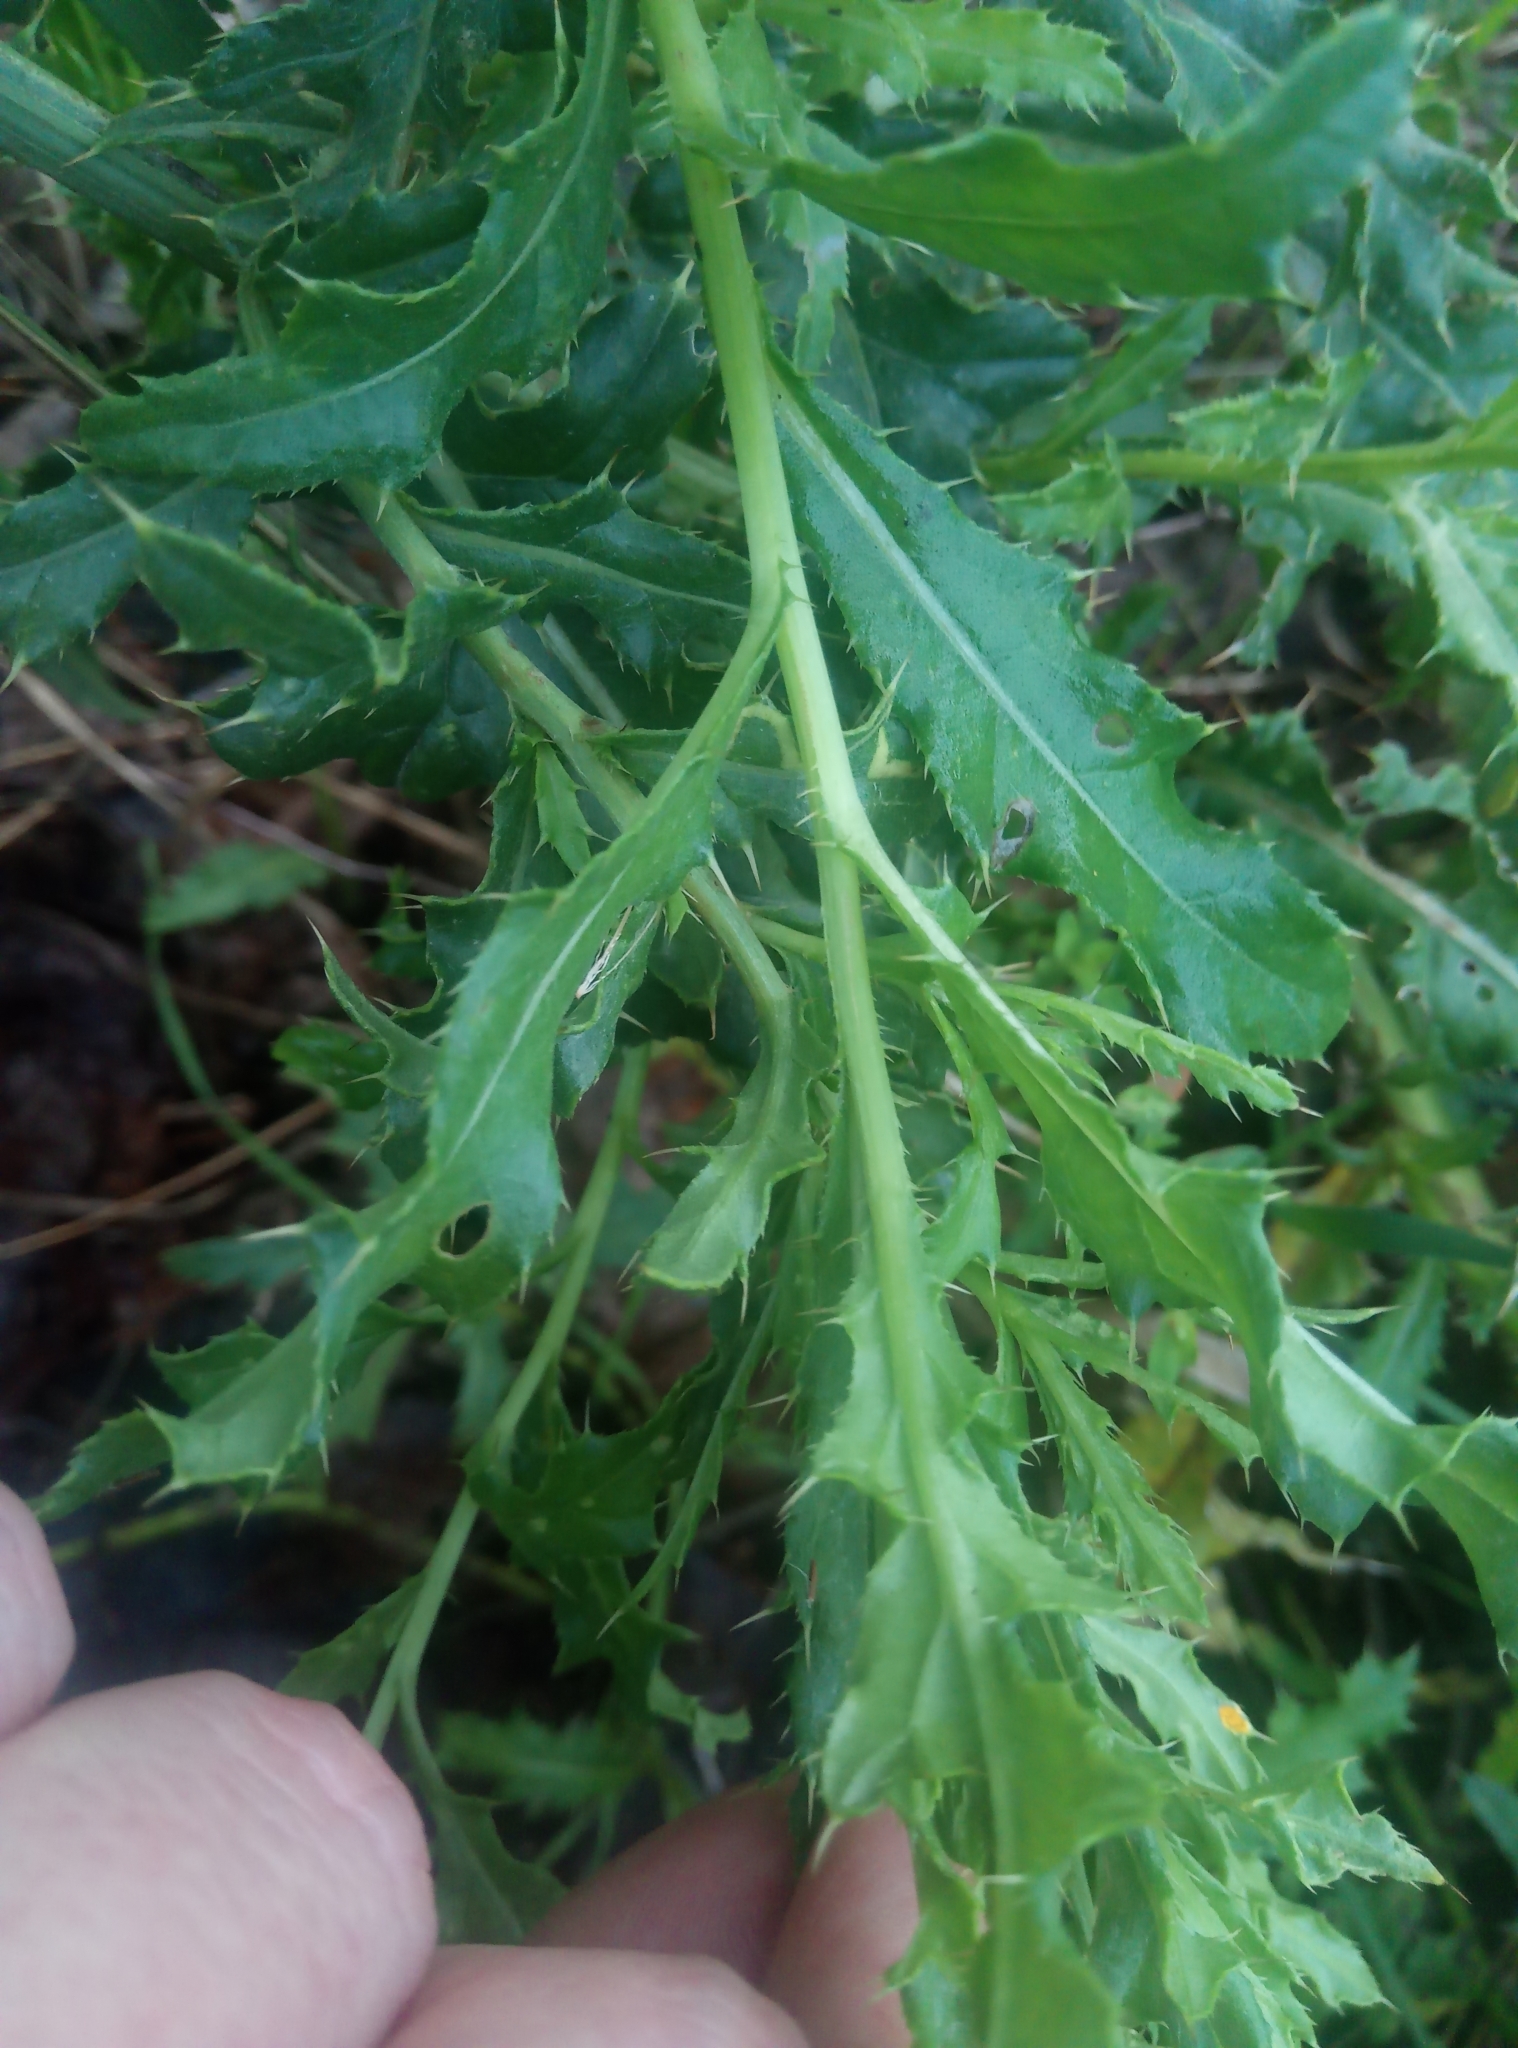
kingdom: Plantae
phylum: Tracheophyta
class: Magnoliopsida
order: Asterales
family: Asteraceae
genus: Cirsium
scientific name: Cirsium arvense
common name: Creeping thistle
